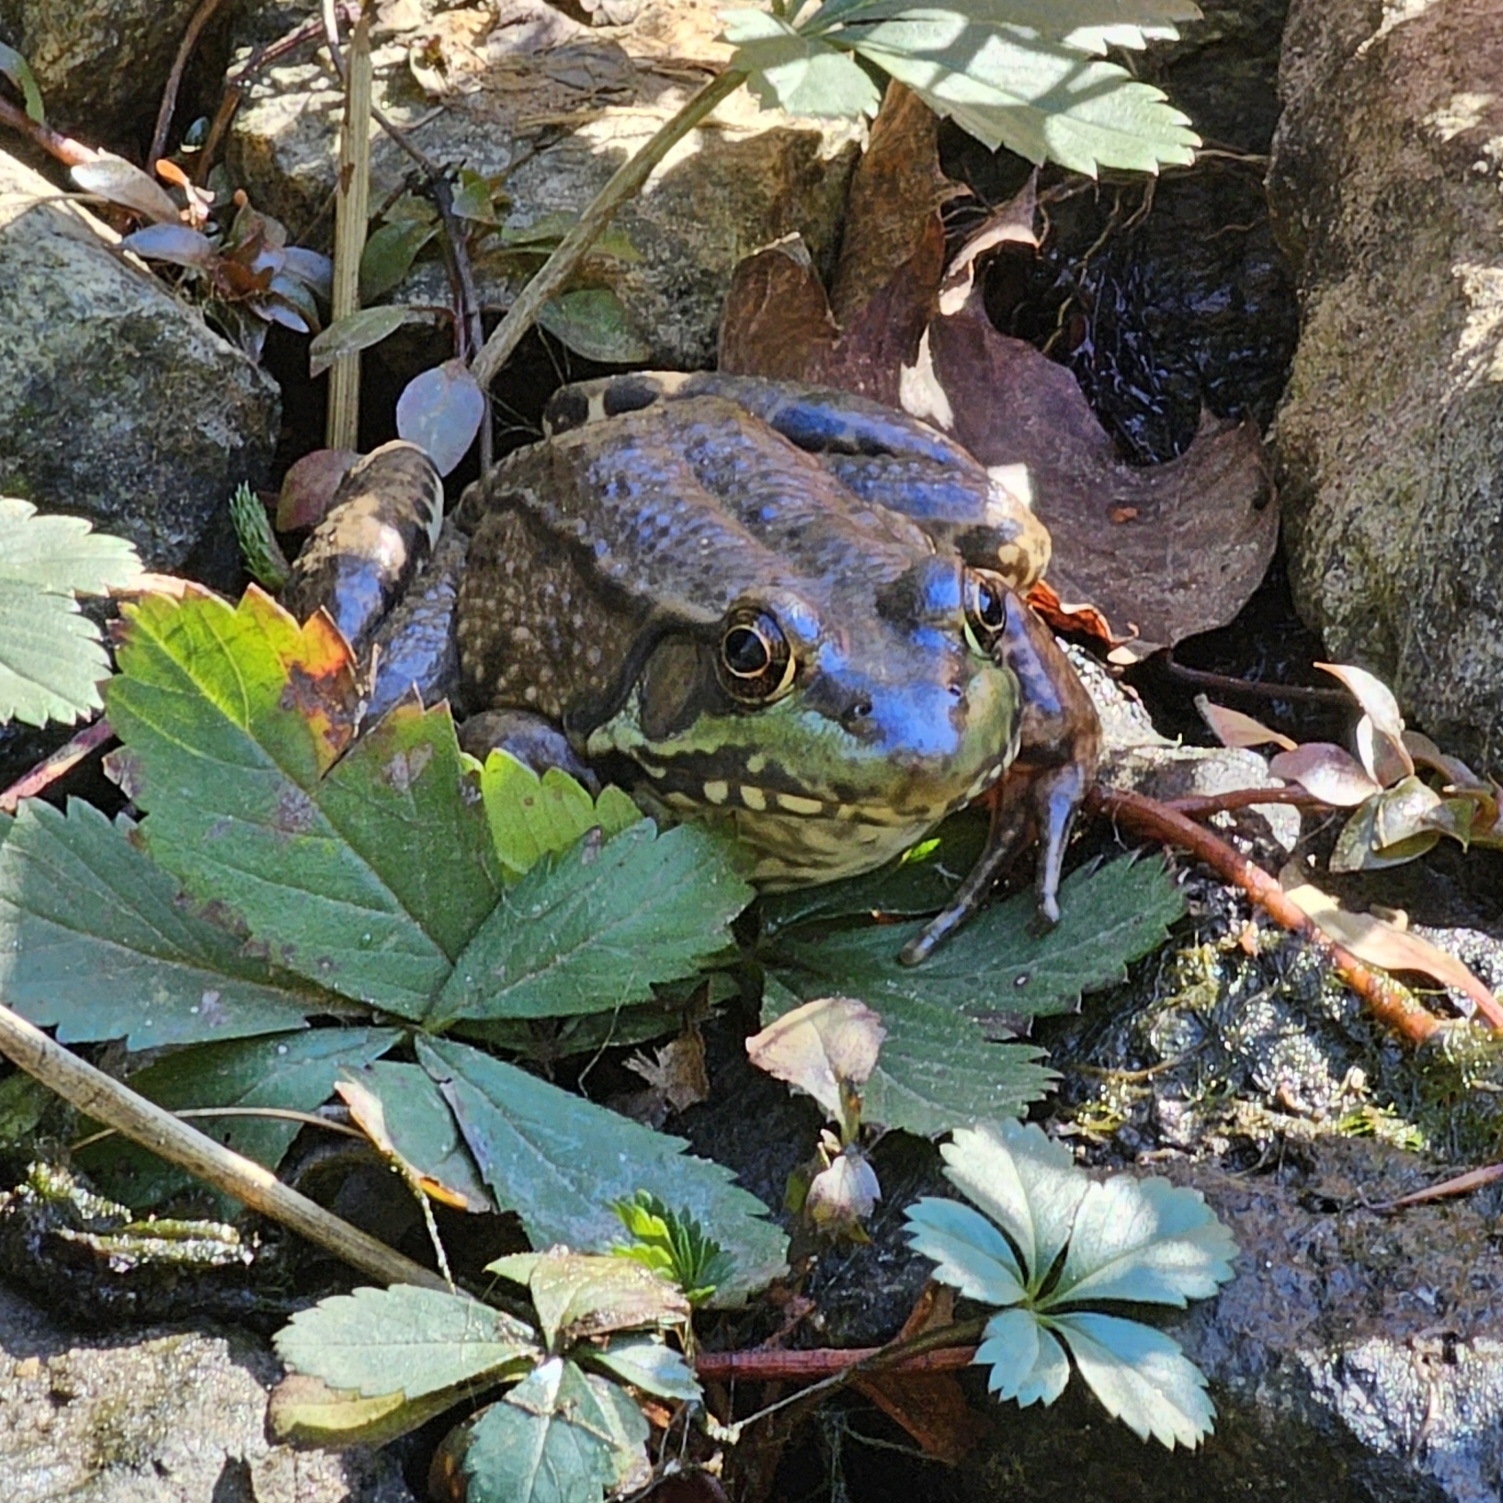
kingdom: Animalia
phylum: Chordata
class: Amphibia
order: Anura
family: Ranidae
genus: Lithobates
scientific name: Lithobates clamitans
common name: Green frog
